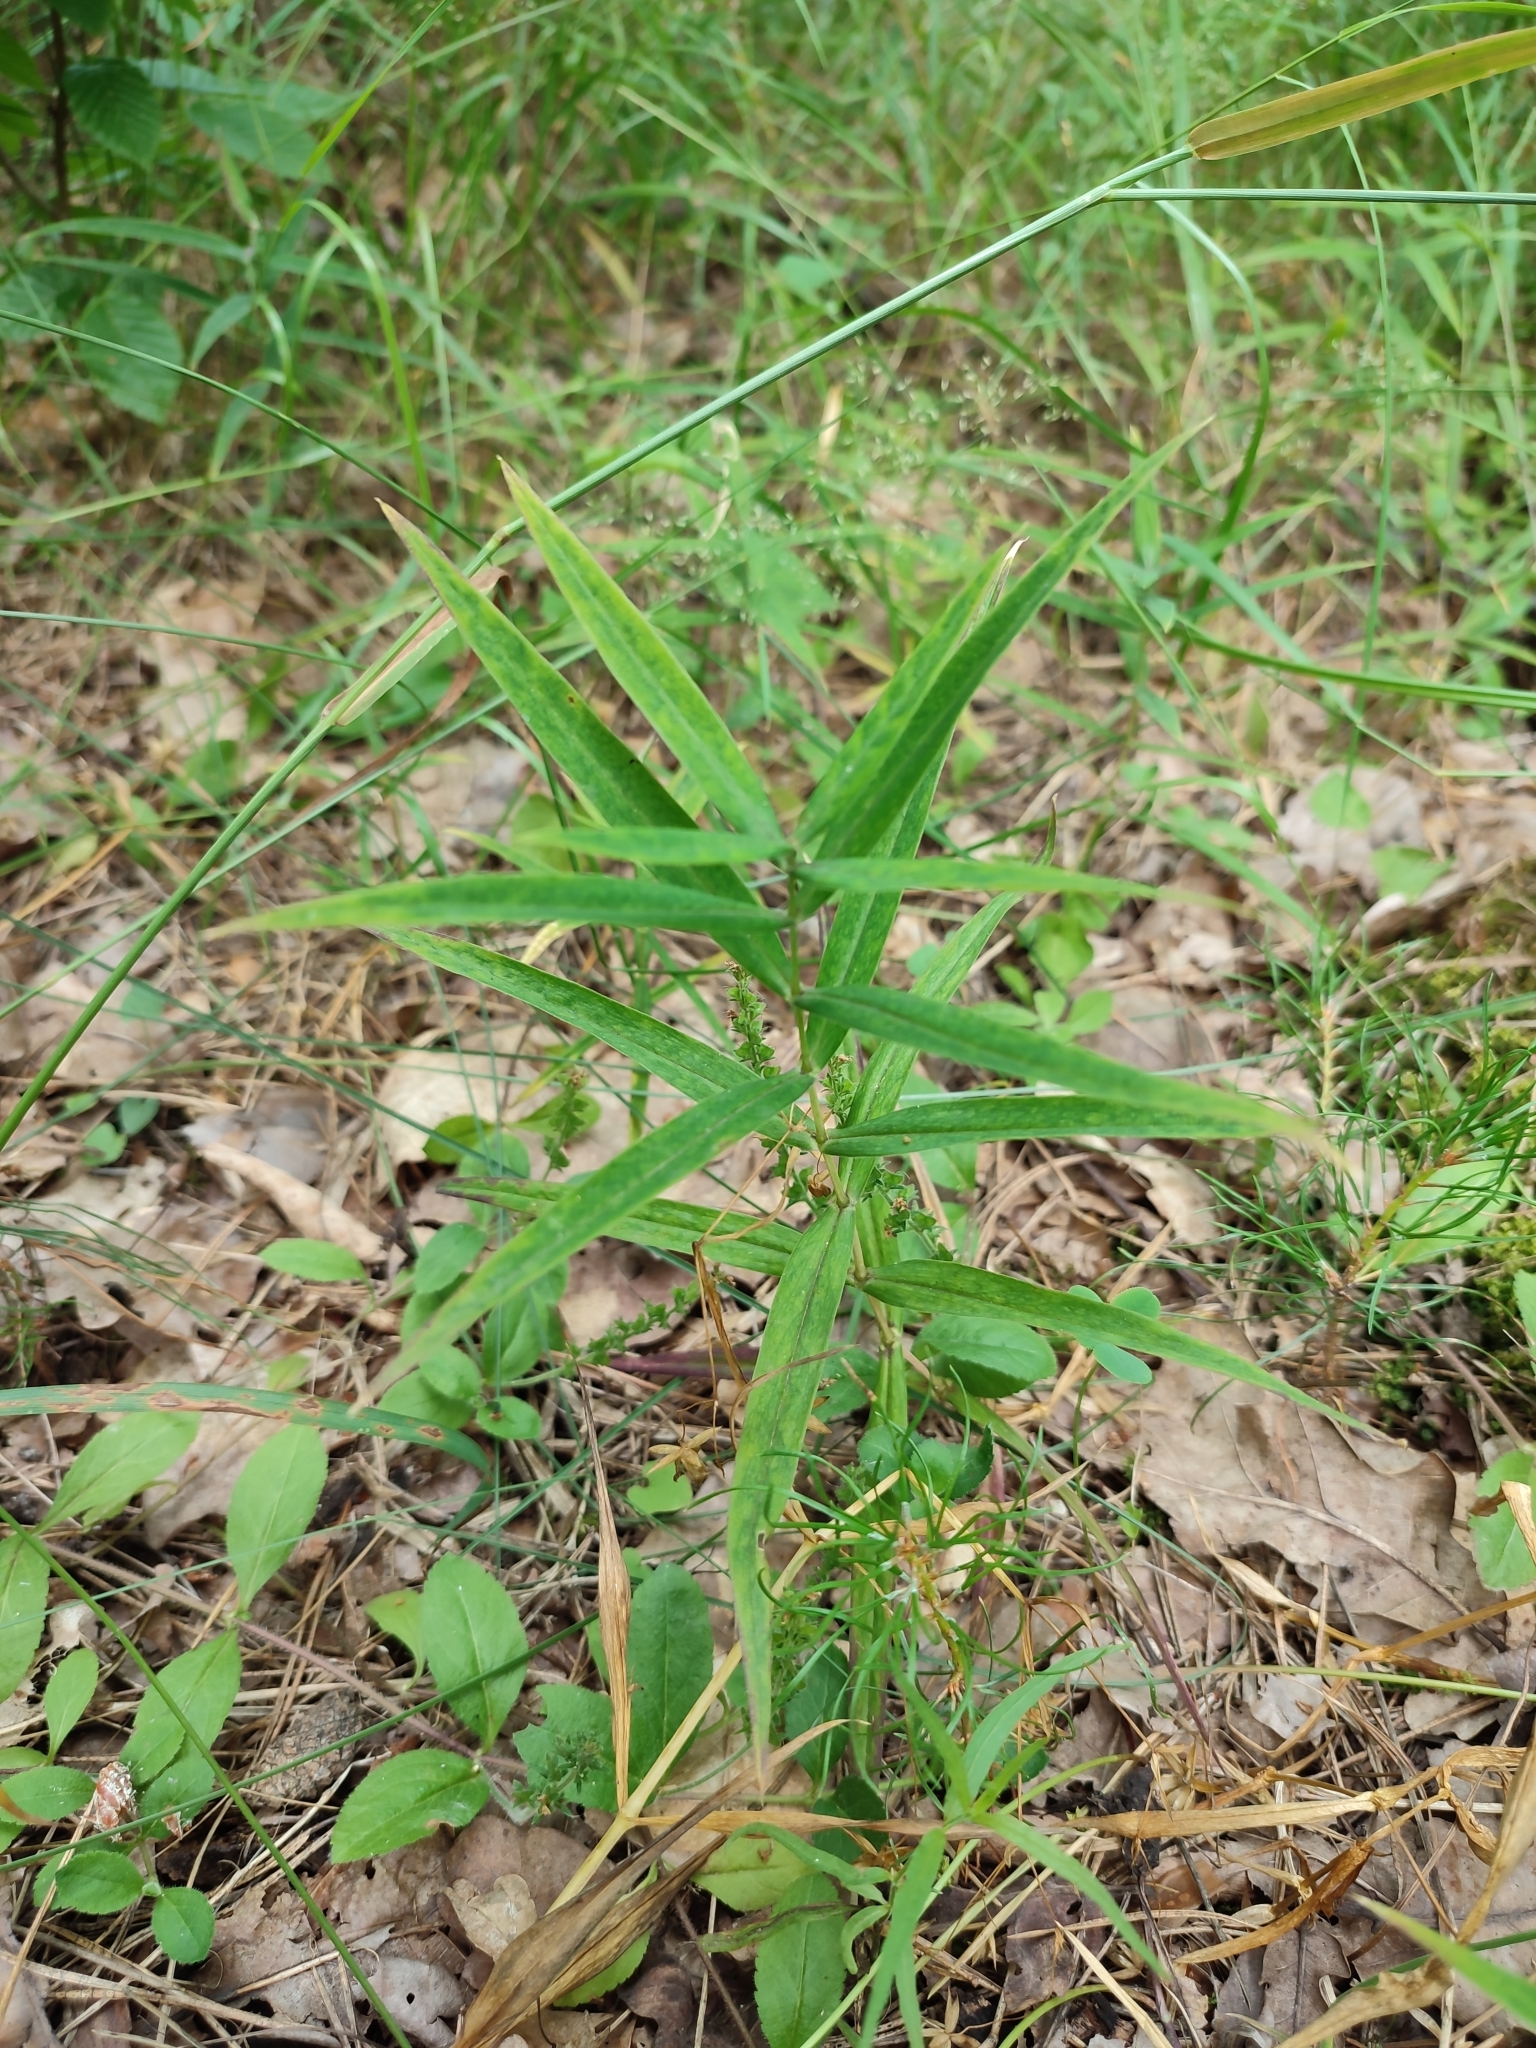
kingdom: Plantae
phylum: Tracheophyta
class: Magnoliopsida
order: Caryophyllales
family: Caryophyllaceae
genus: Rabelera
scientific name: Rabelera holostea
